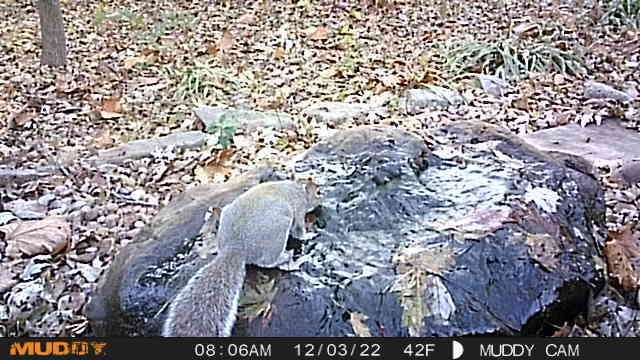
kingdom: Animalia
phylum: Chordata
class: Mammalia
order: Rodentia
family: Sciuridae
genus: Sciurus
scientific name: Sciurus carolinensis
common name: Eastern gray squirrel
